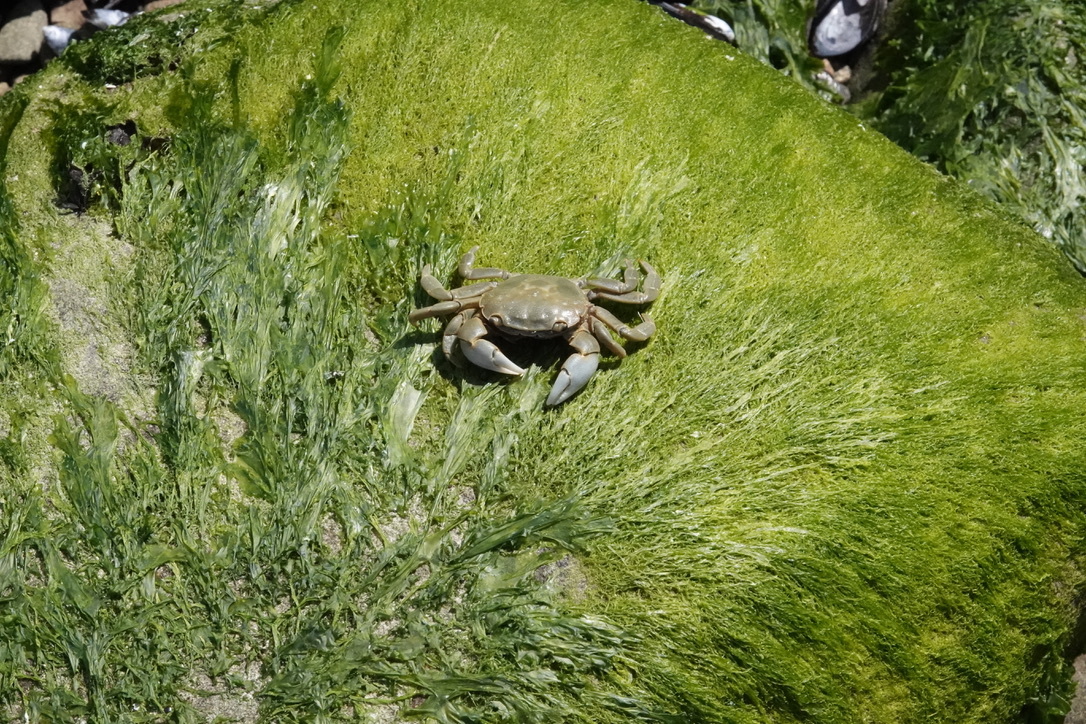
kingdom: Animalia
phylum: Arthropoda
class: Malacostraca
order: Decapoda
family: Varunidae
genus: Hemigrapsus
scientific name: Hemigrapsus nudus
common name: Purple shore crab
